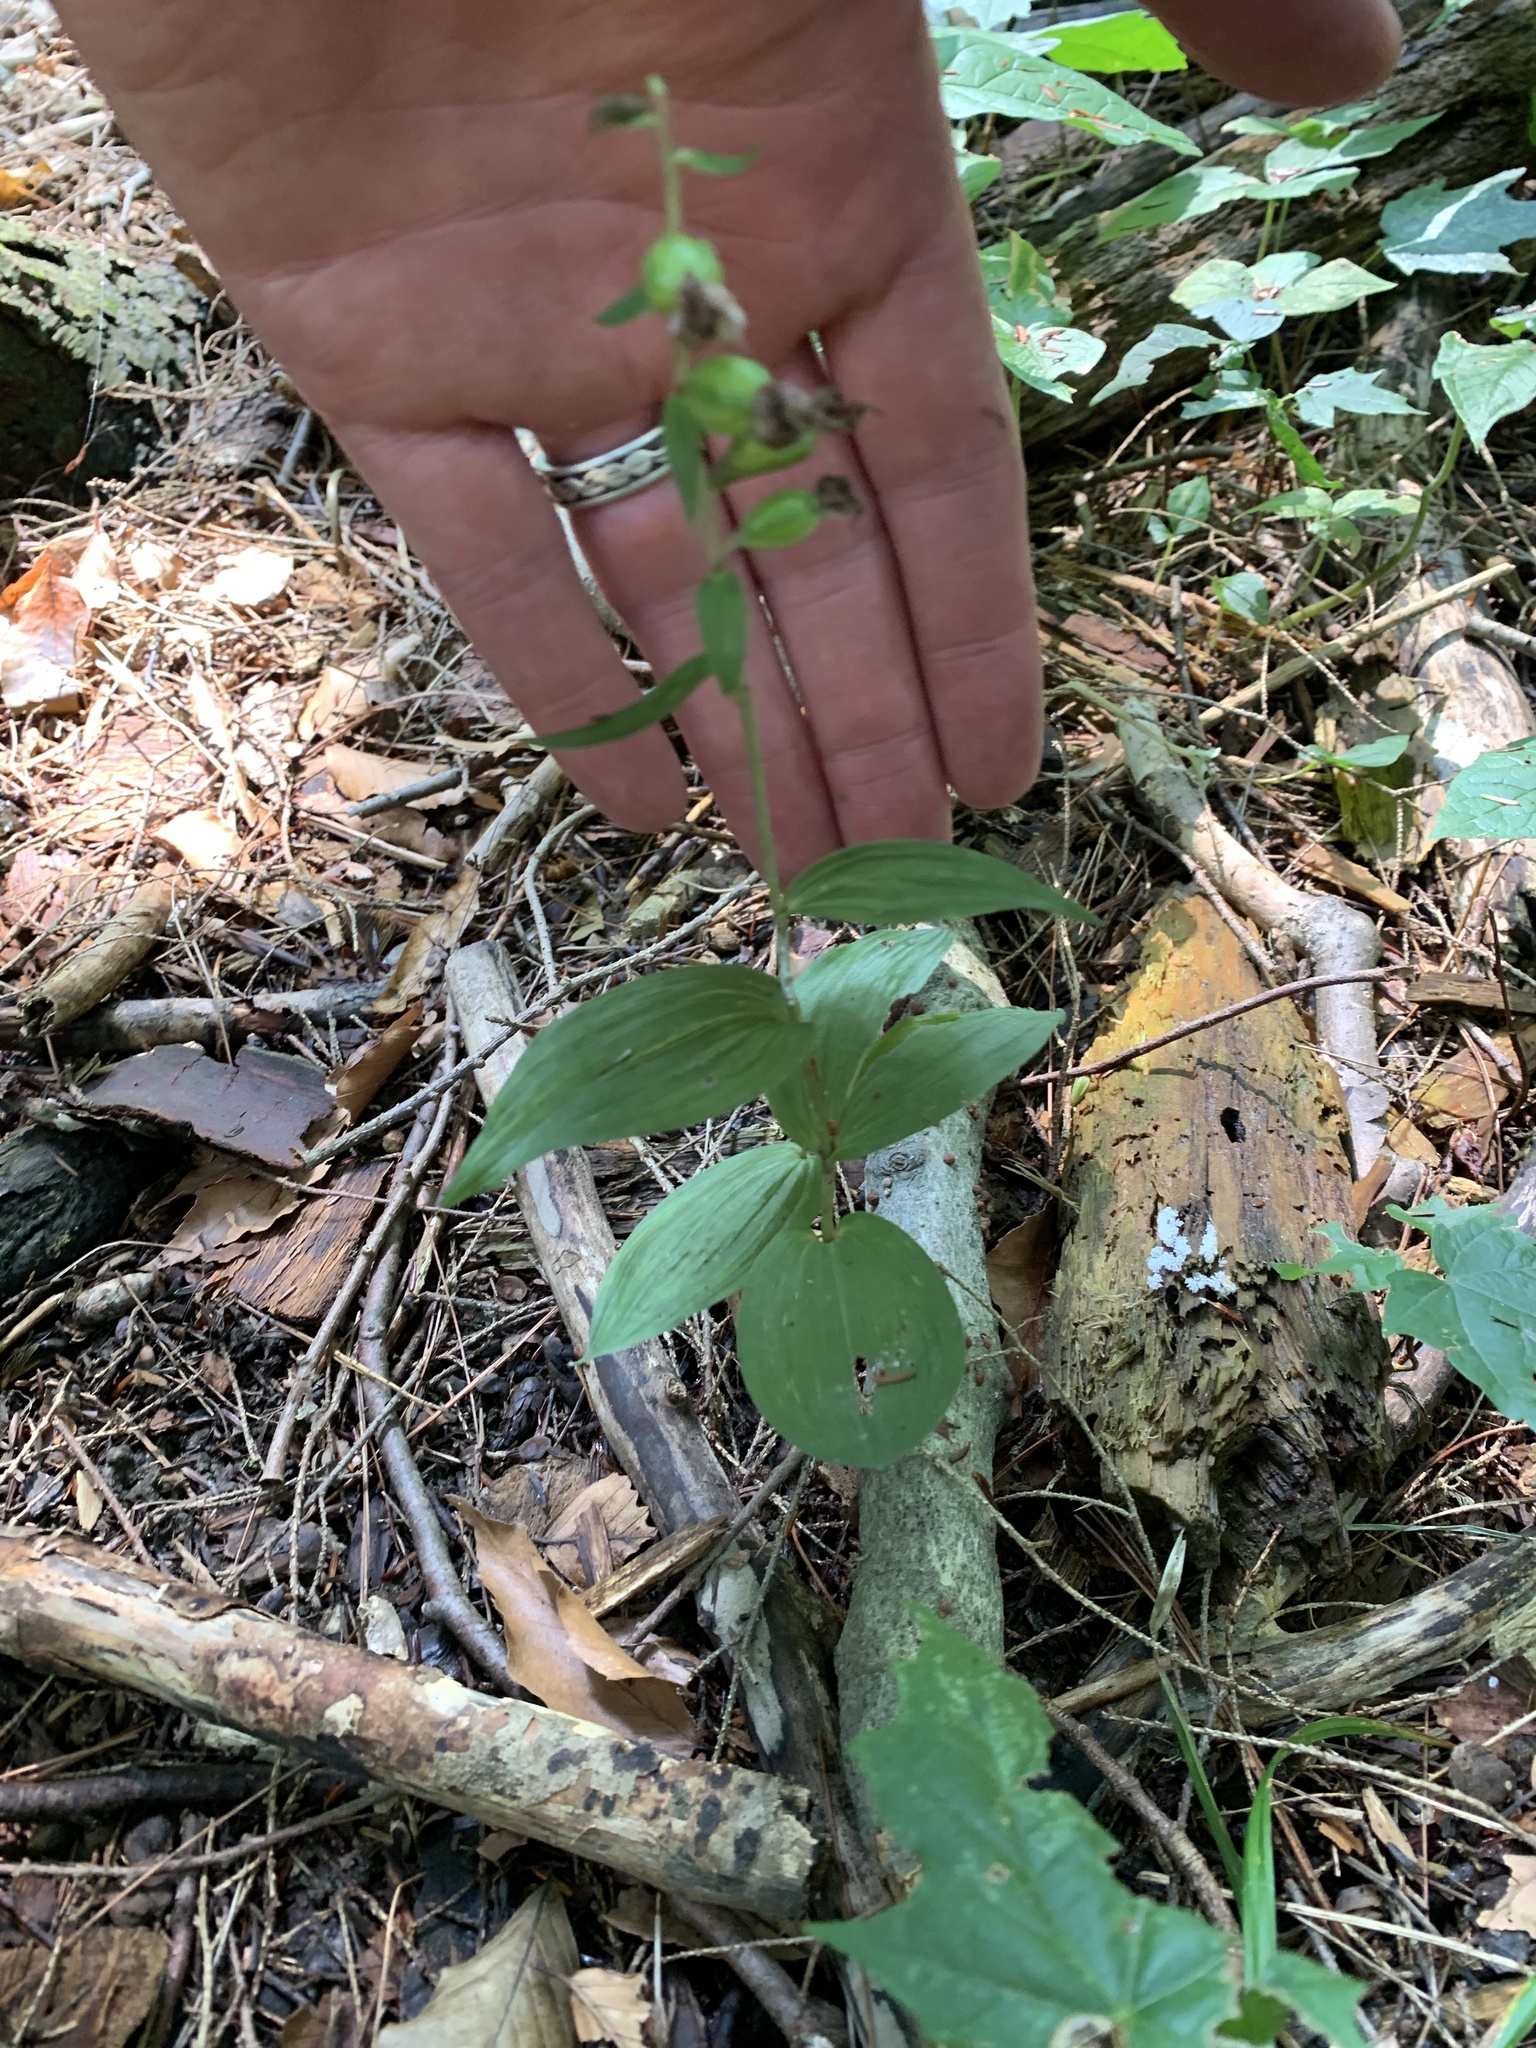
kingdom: Plantae
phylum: Tracheophyta
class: Liliopsida
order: Asparagales
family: Orchidaceae
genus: Epipactis
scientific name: Epipactis helleborine
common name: Broad-leaved helleborine
